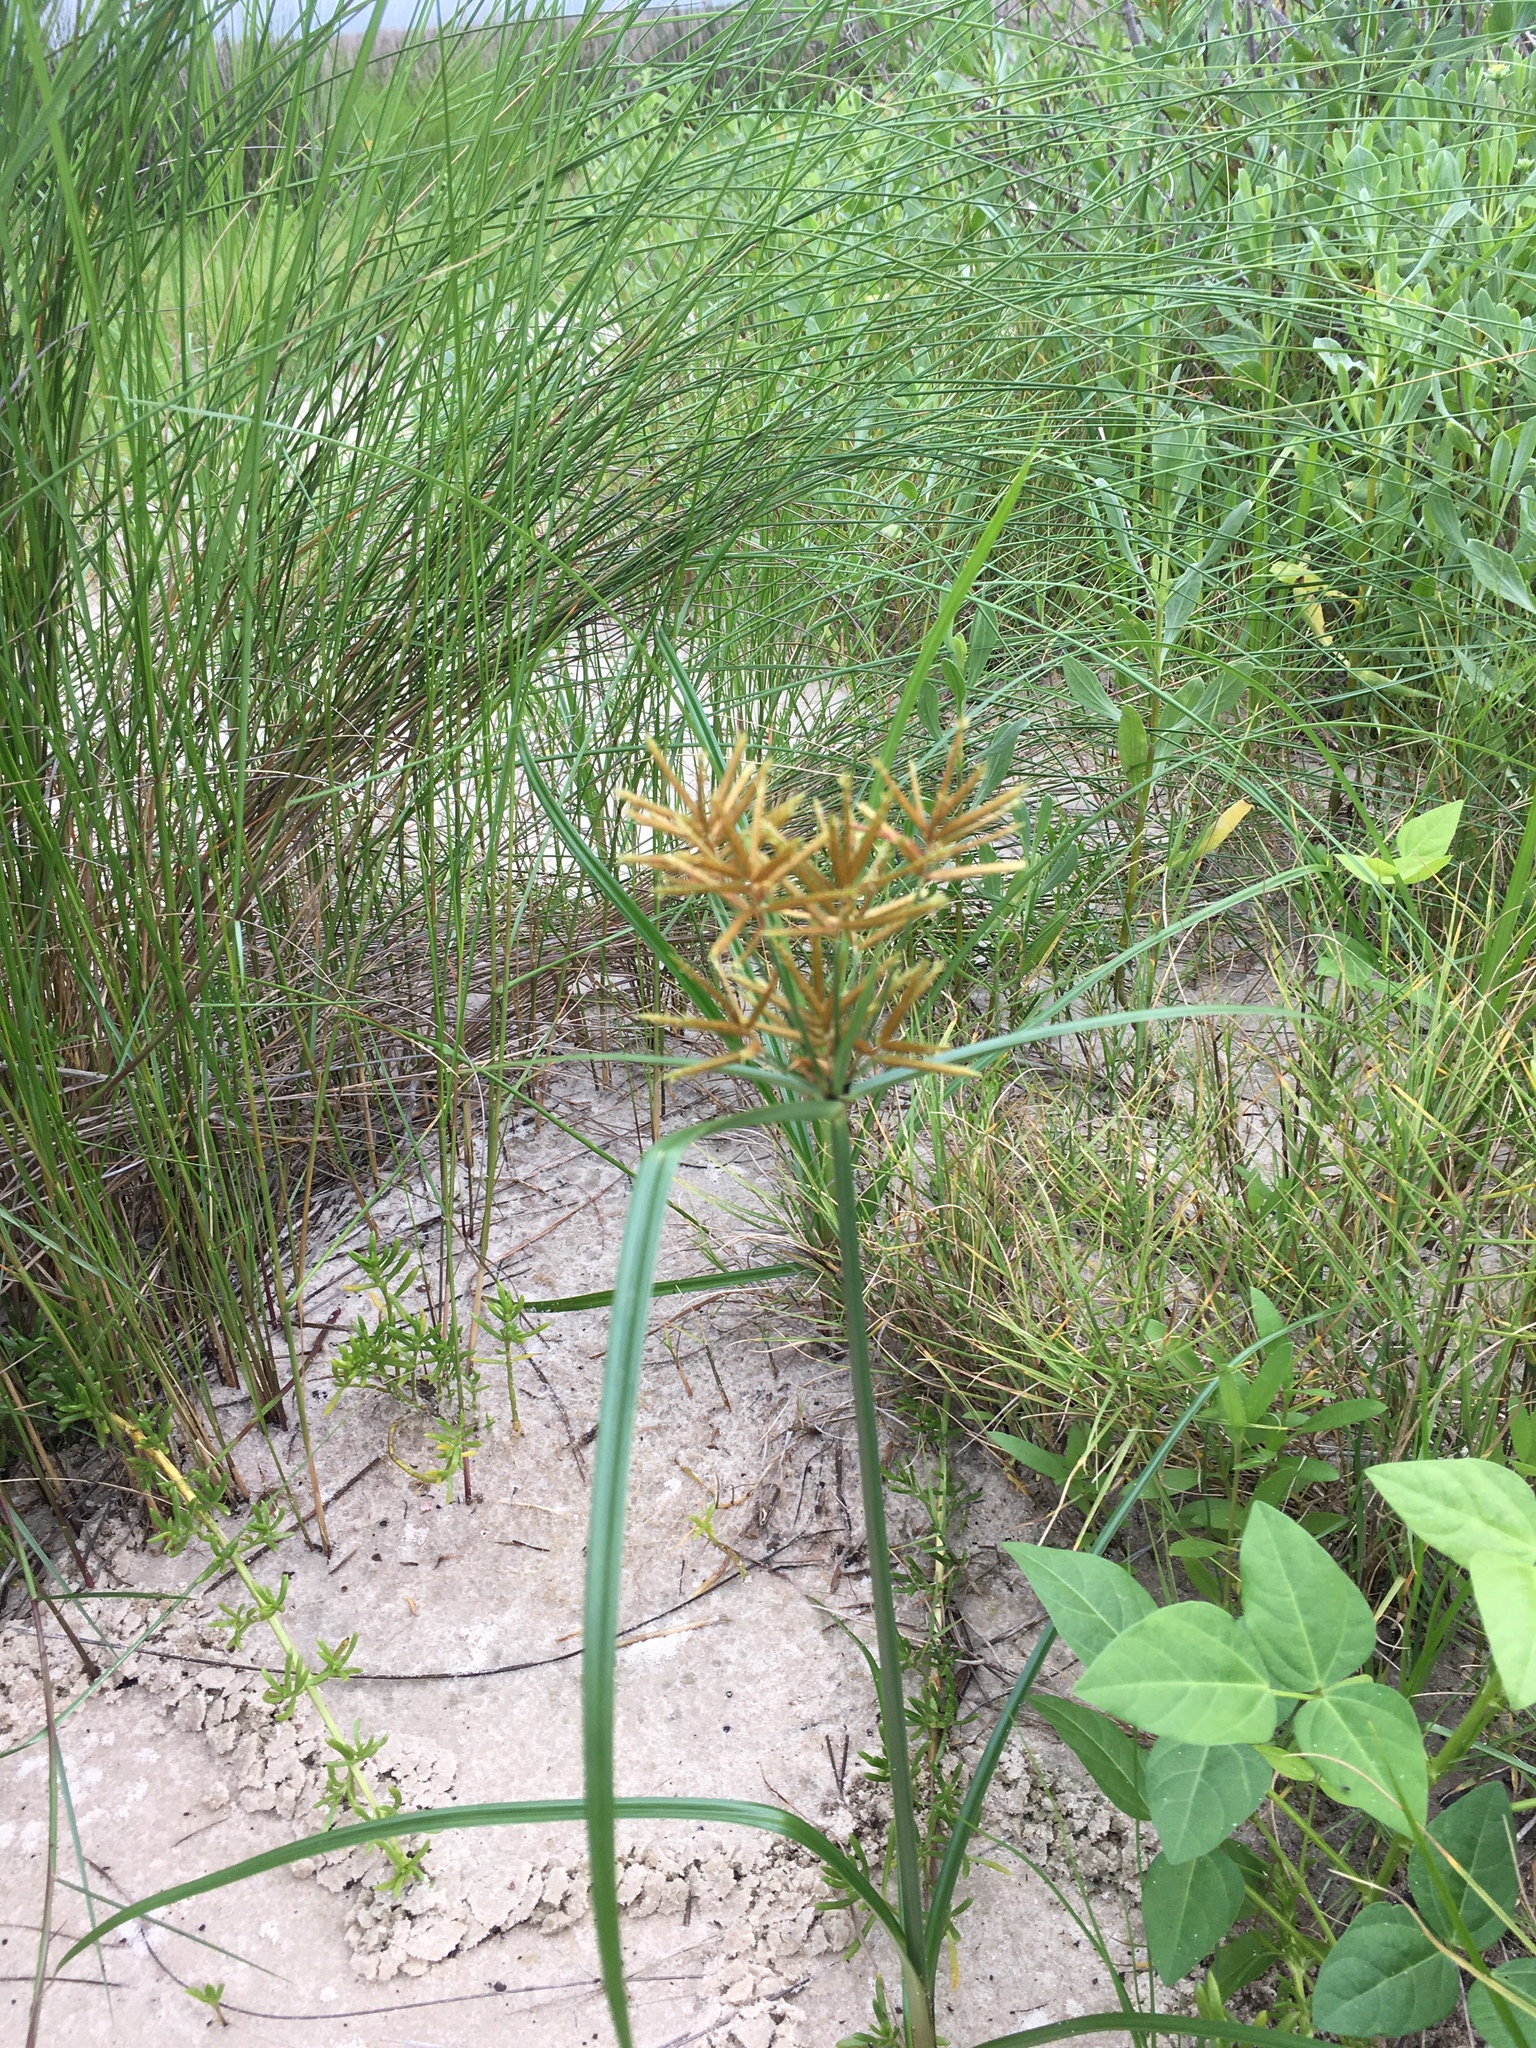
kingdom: Plantae
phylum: Tracheophyta
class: Liliopsida
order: Poales
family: Cyperaceae
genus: Cyperus
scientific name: Cyperus esculentus
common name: Yellow nutsedge
